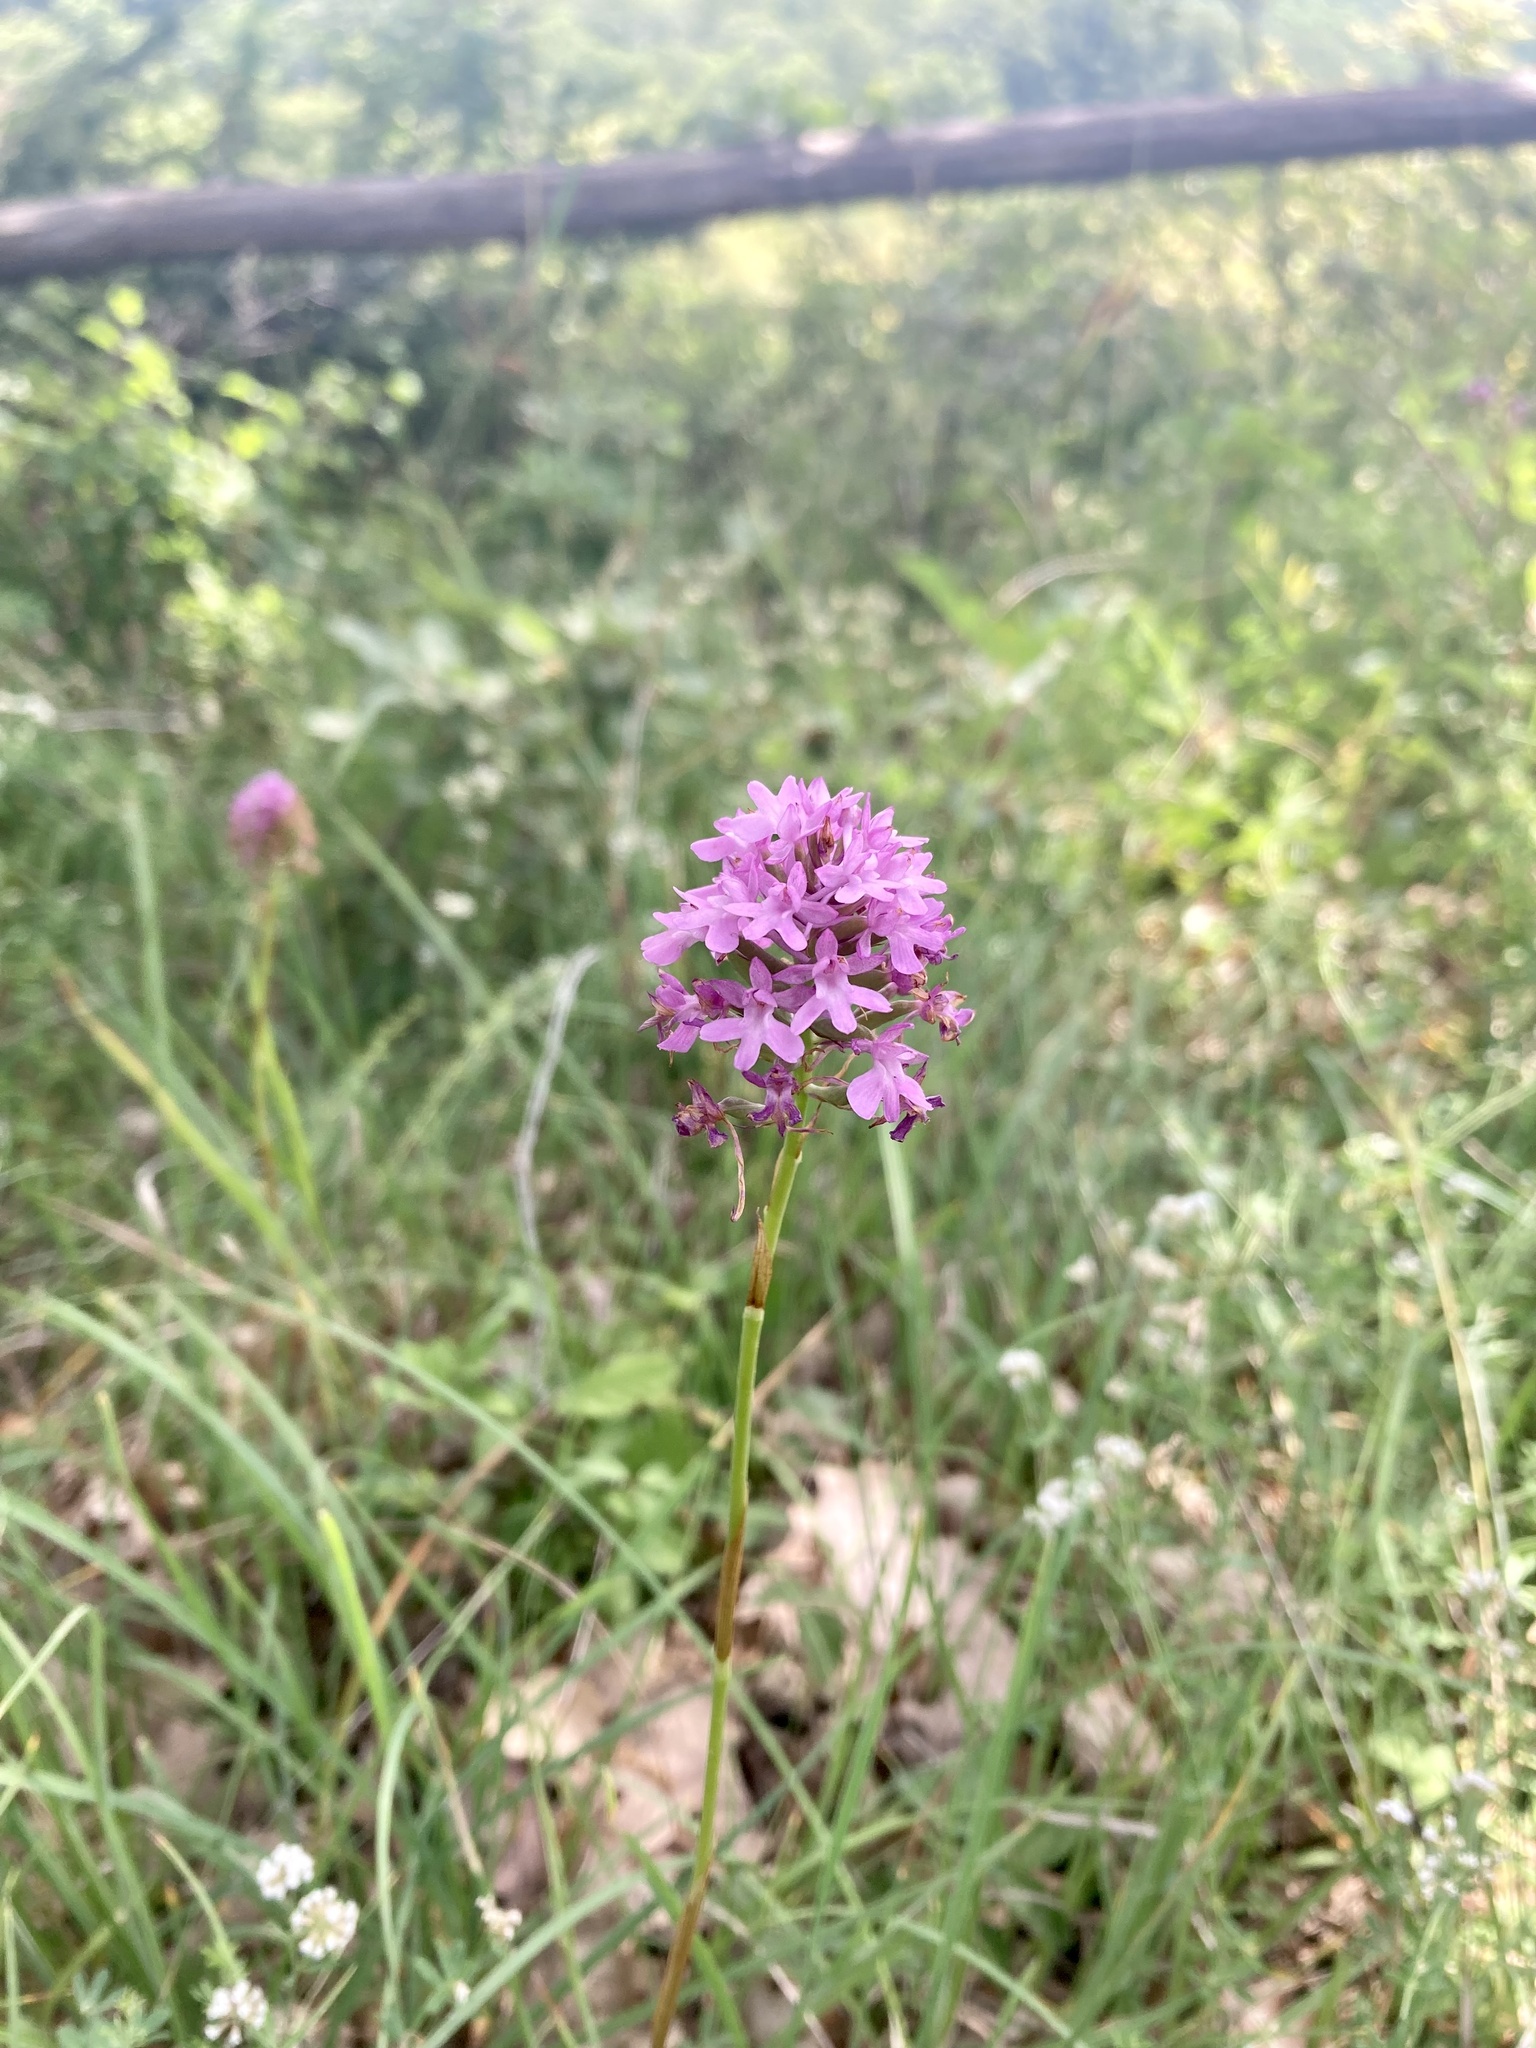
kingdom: Plantae
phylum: Tracheophyta
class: Liliopsida
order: Asparagales
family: Orchidaceae
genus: Anacamptis
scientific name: Anacamptis pyramidalis
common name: Pyramidal orchid
